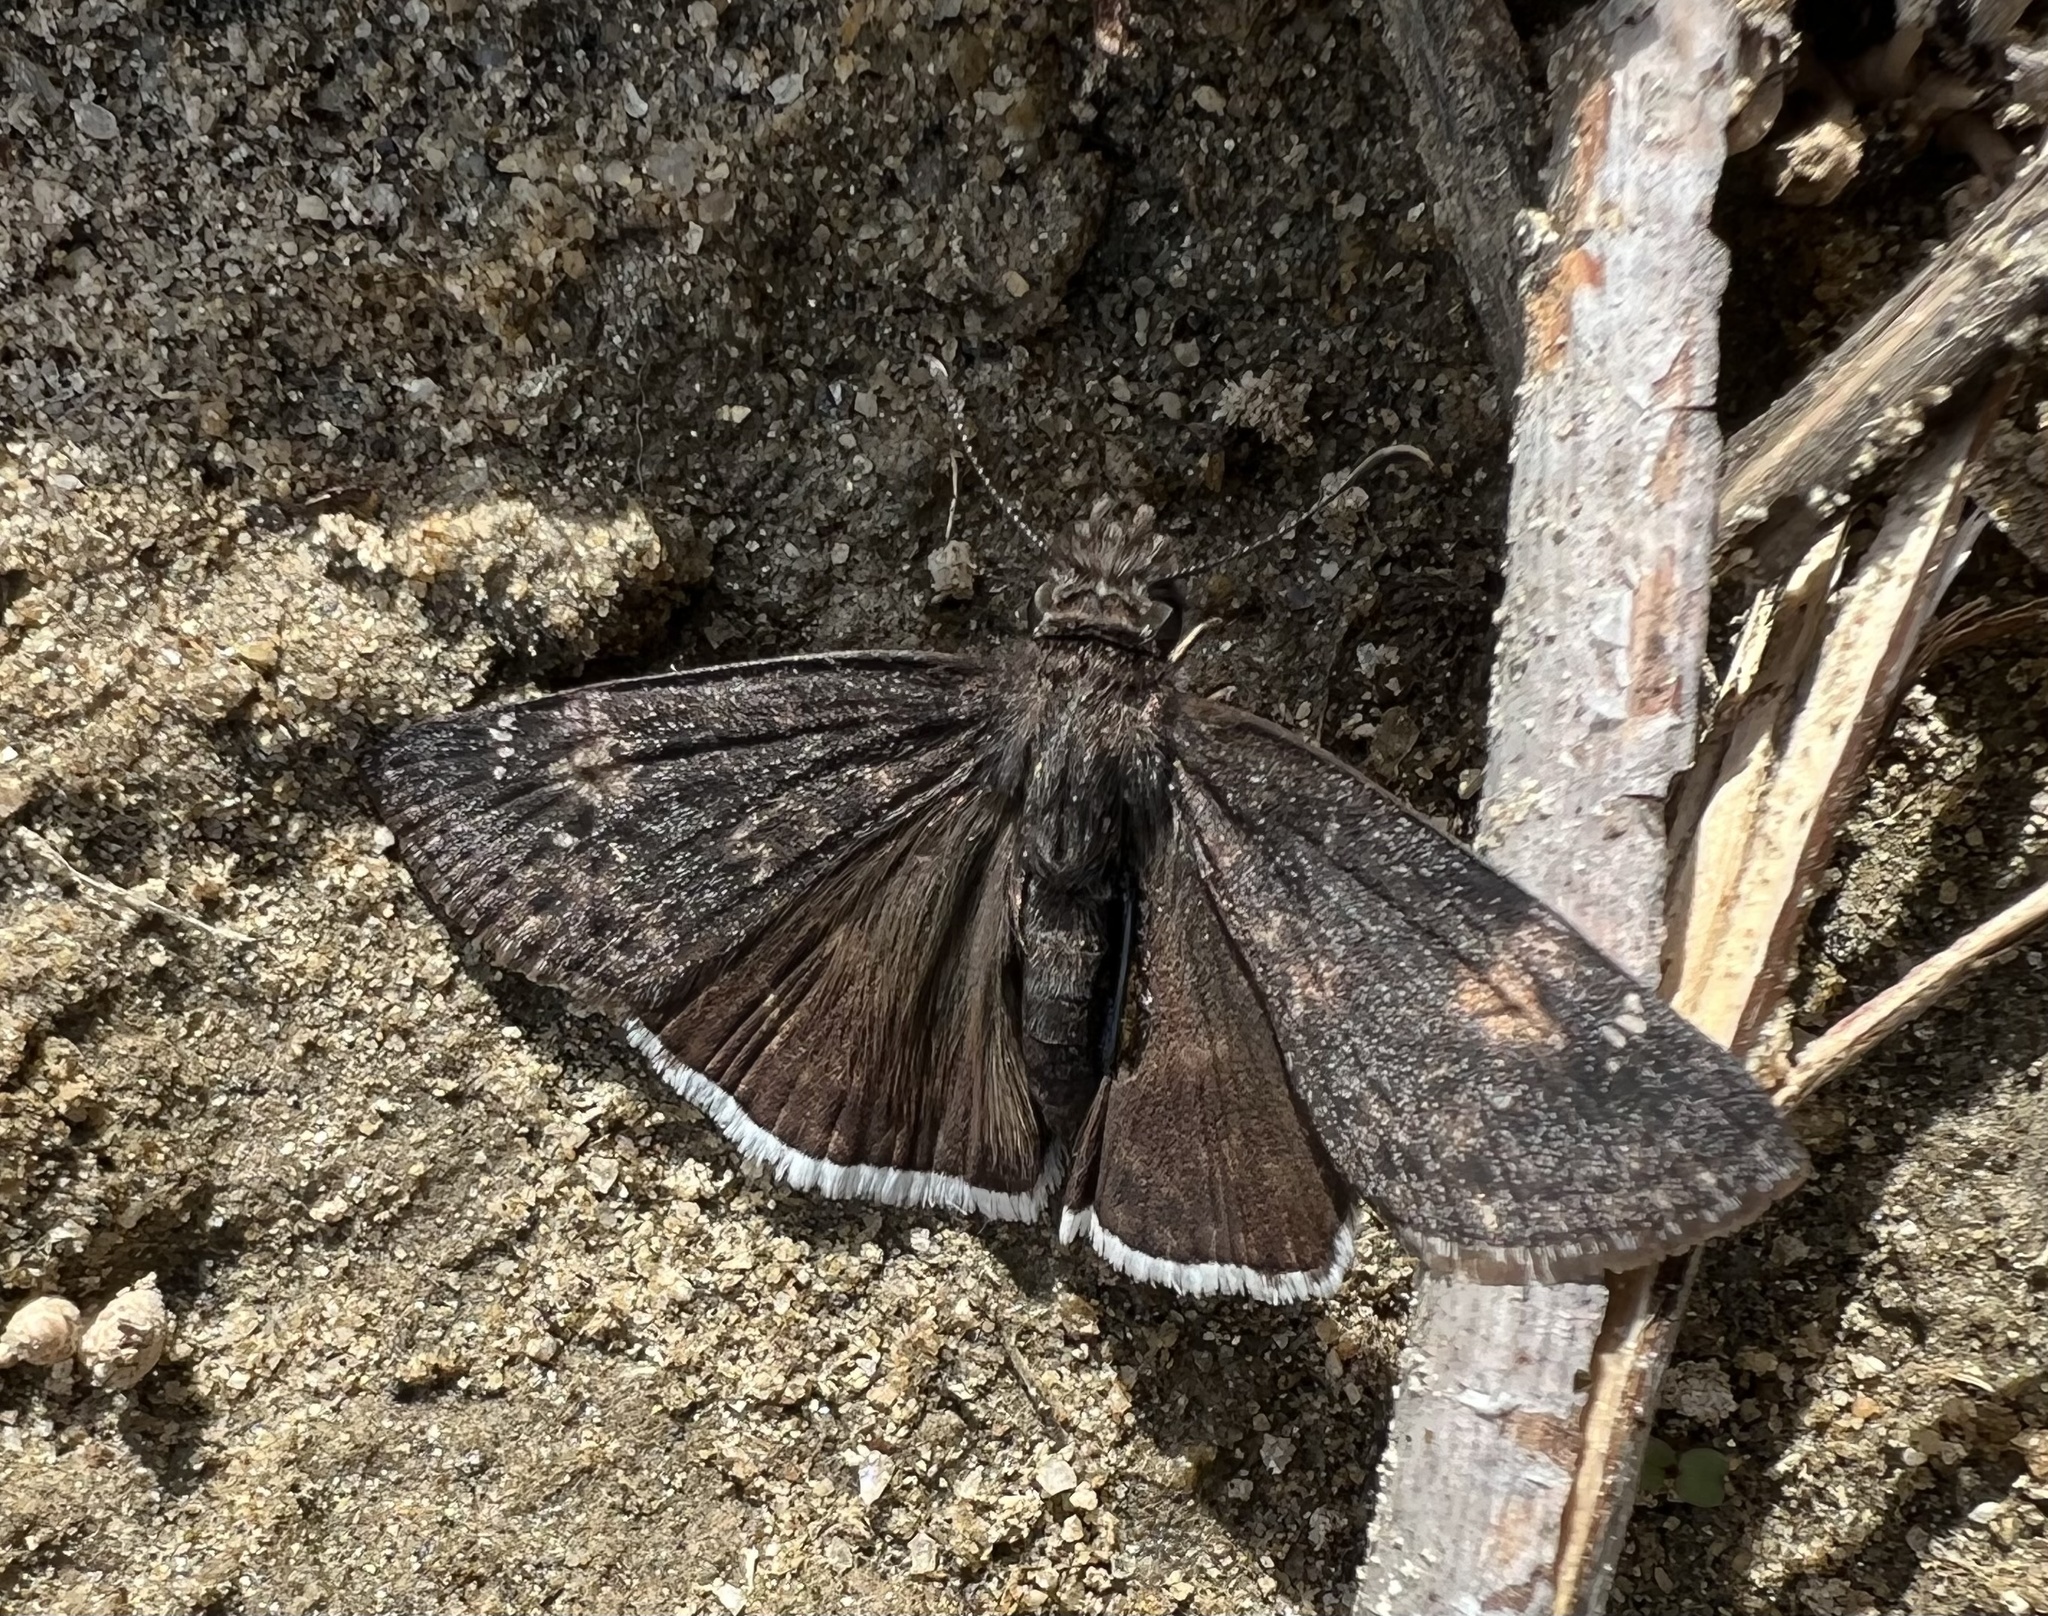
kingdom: Animalia
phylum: Arthropoda
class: Insecta
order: Lepidoptera
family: Hesperiidae
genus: Erynnis
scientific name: Erynnis funeralis
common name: Funereal duskywing
